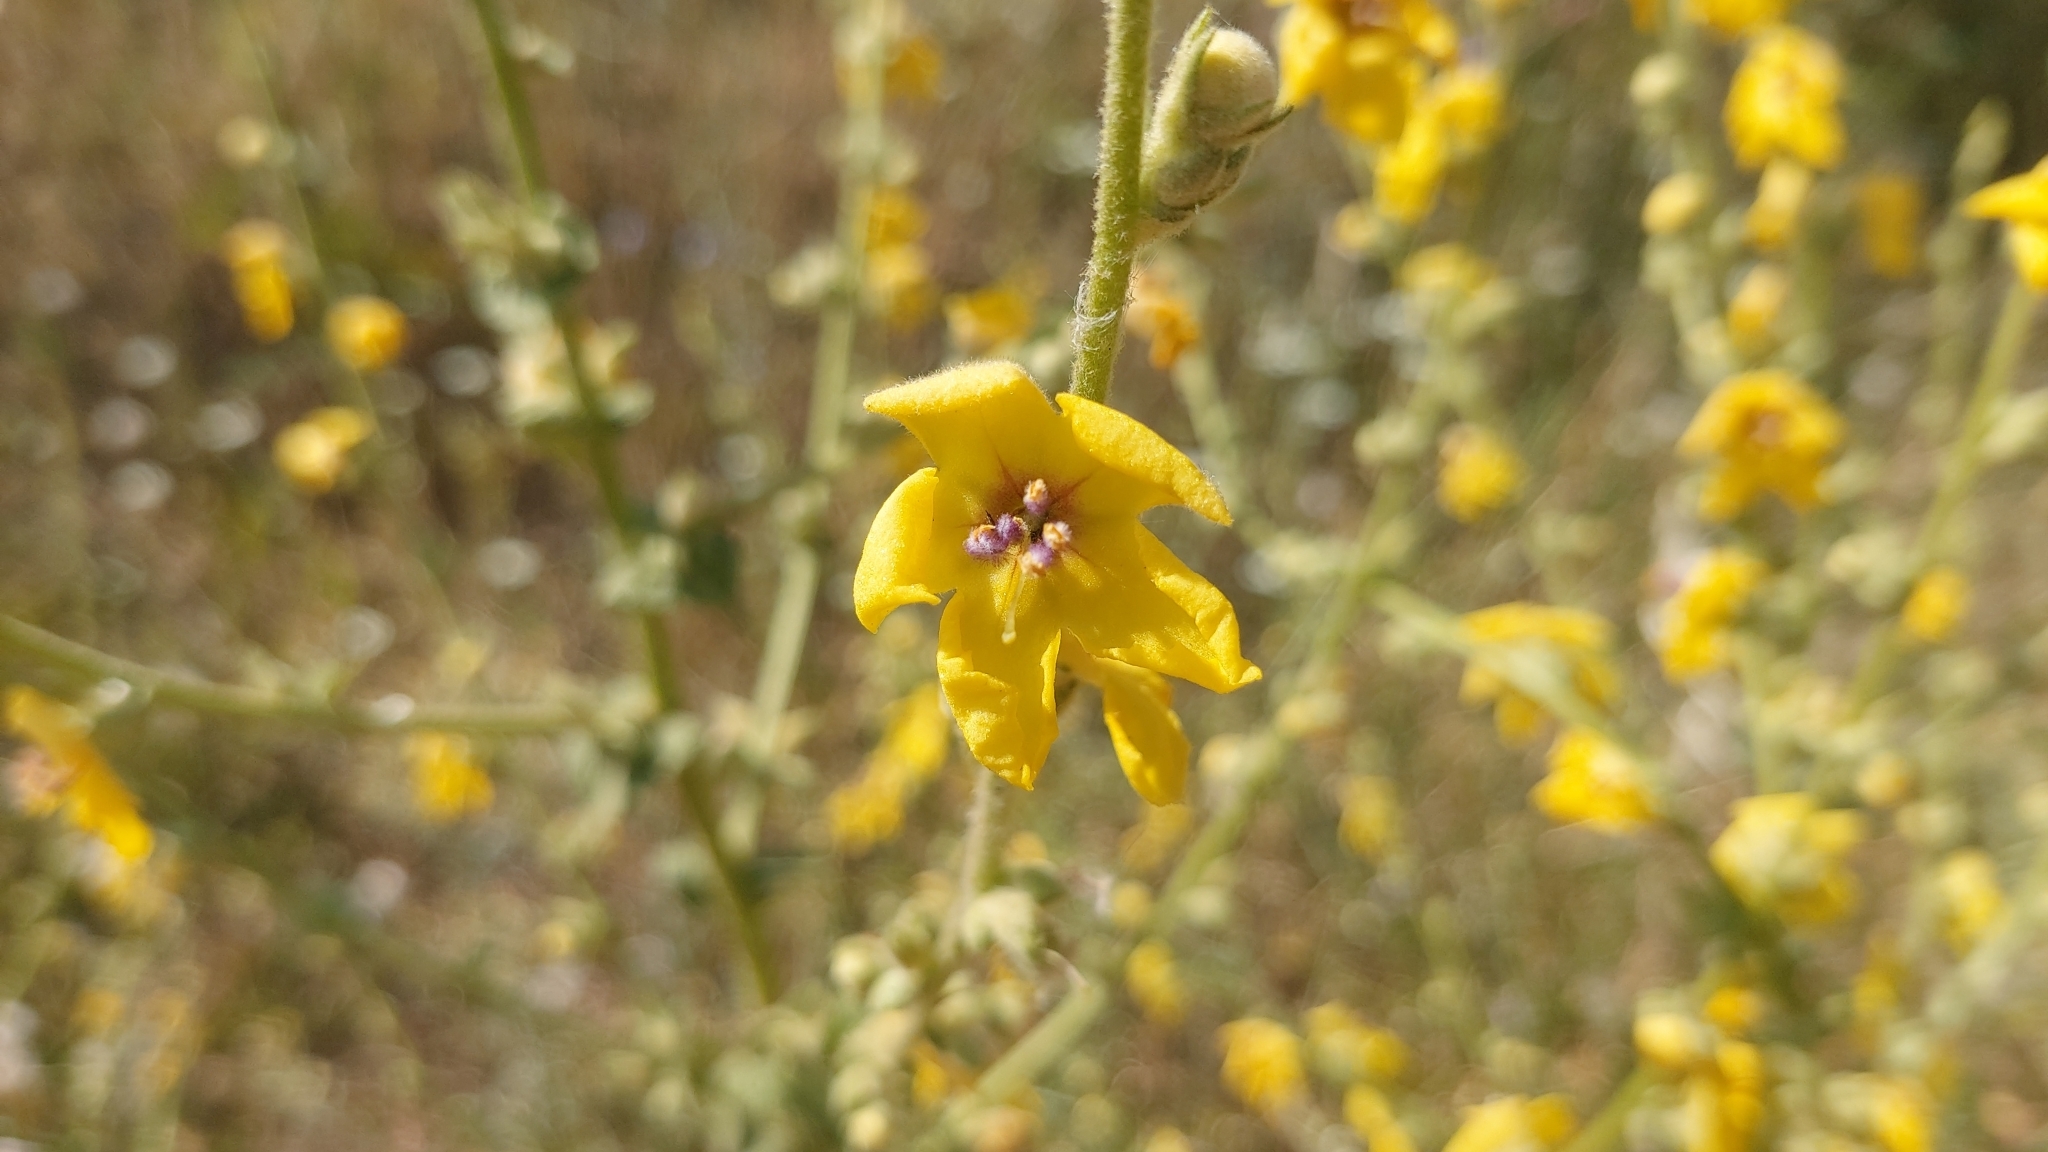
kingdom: Plantae
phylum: Tracheophyta
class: Magnoliopsida
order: Lamiales
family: Scrophulariaceae
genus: Verbascum
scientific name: Verbascum sinuatum
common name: Wavyleaf mullein
